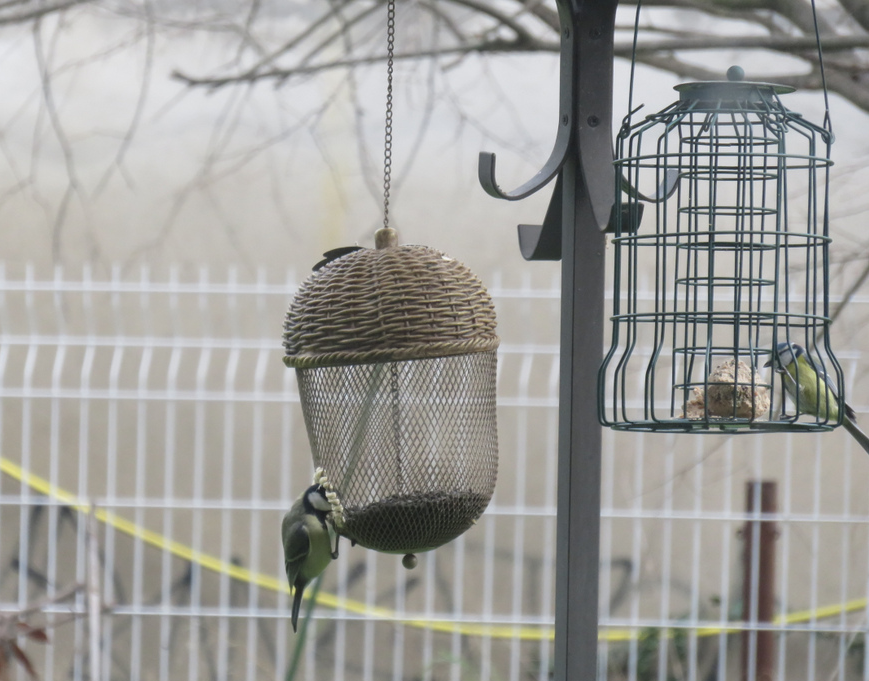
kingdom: Animalia
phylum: Chordata
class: Aves
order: Passeriformes
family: Paridae
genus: Parus
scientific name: Parus major
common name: Great tit
